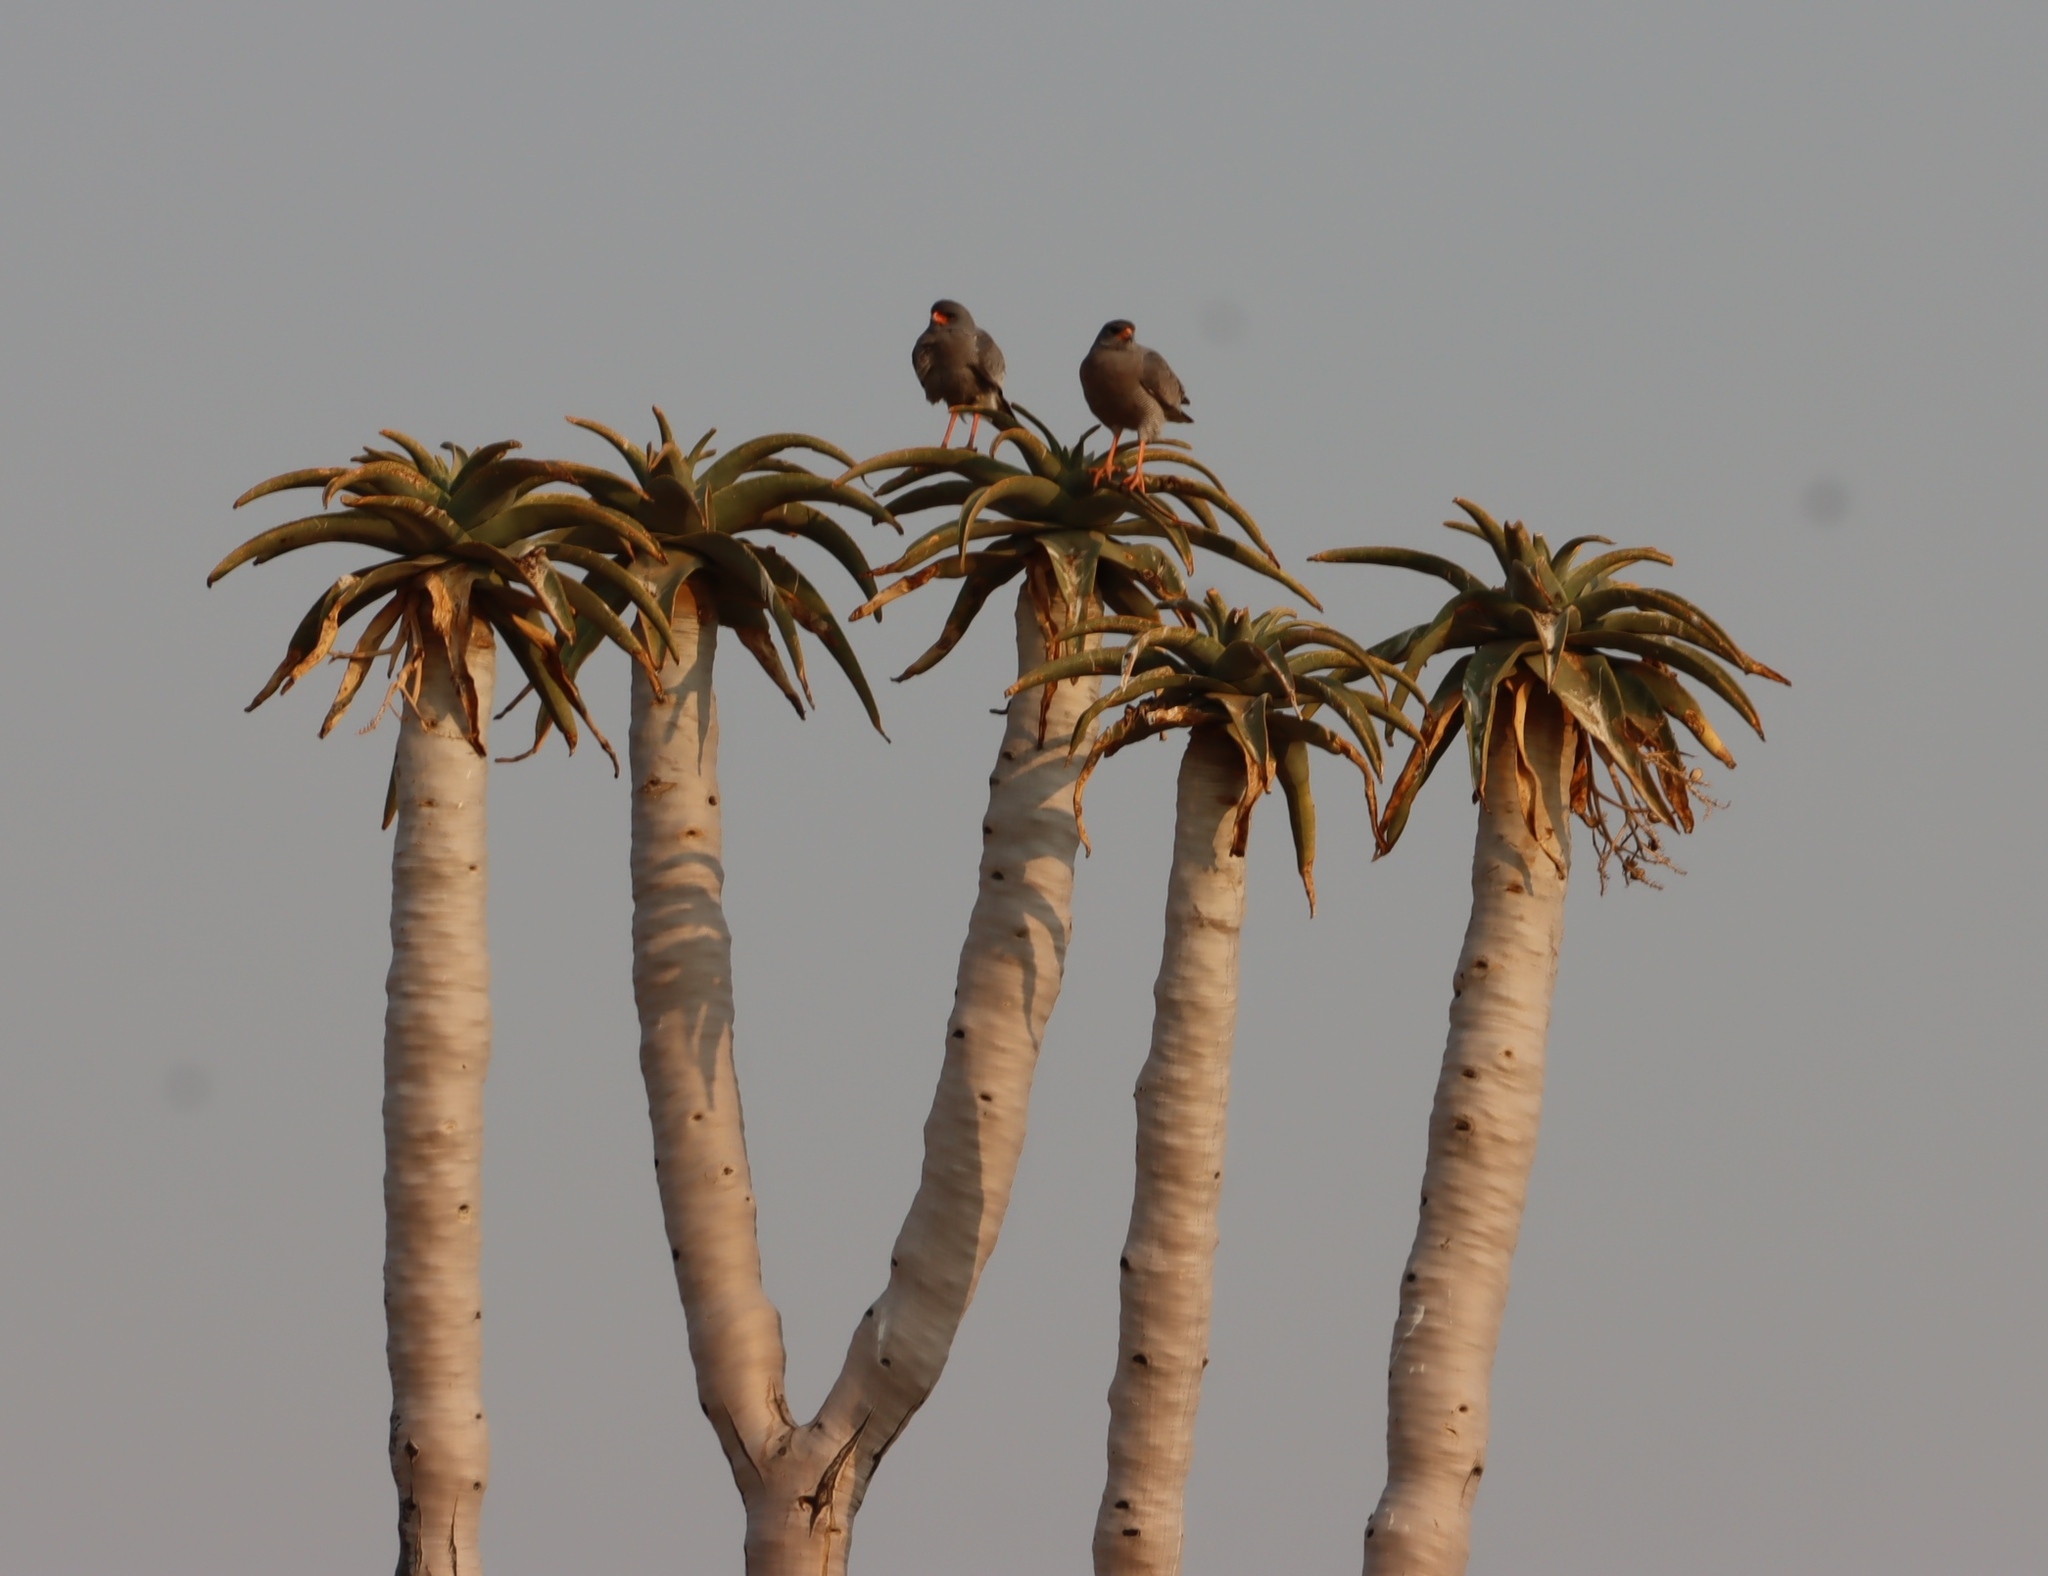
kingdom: Plantae
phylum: Tracheophyta
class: Liliopsida
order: Asparagales
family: Asphodelaceae
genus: Aloidendron
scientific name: Aloidendron pillansii
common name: Bastard quiver tree
